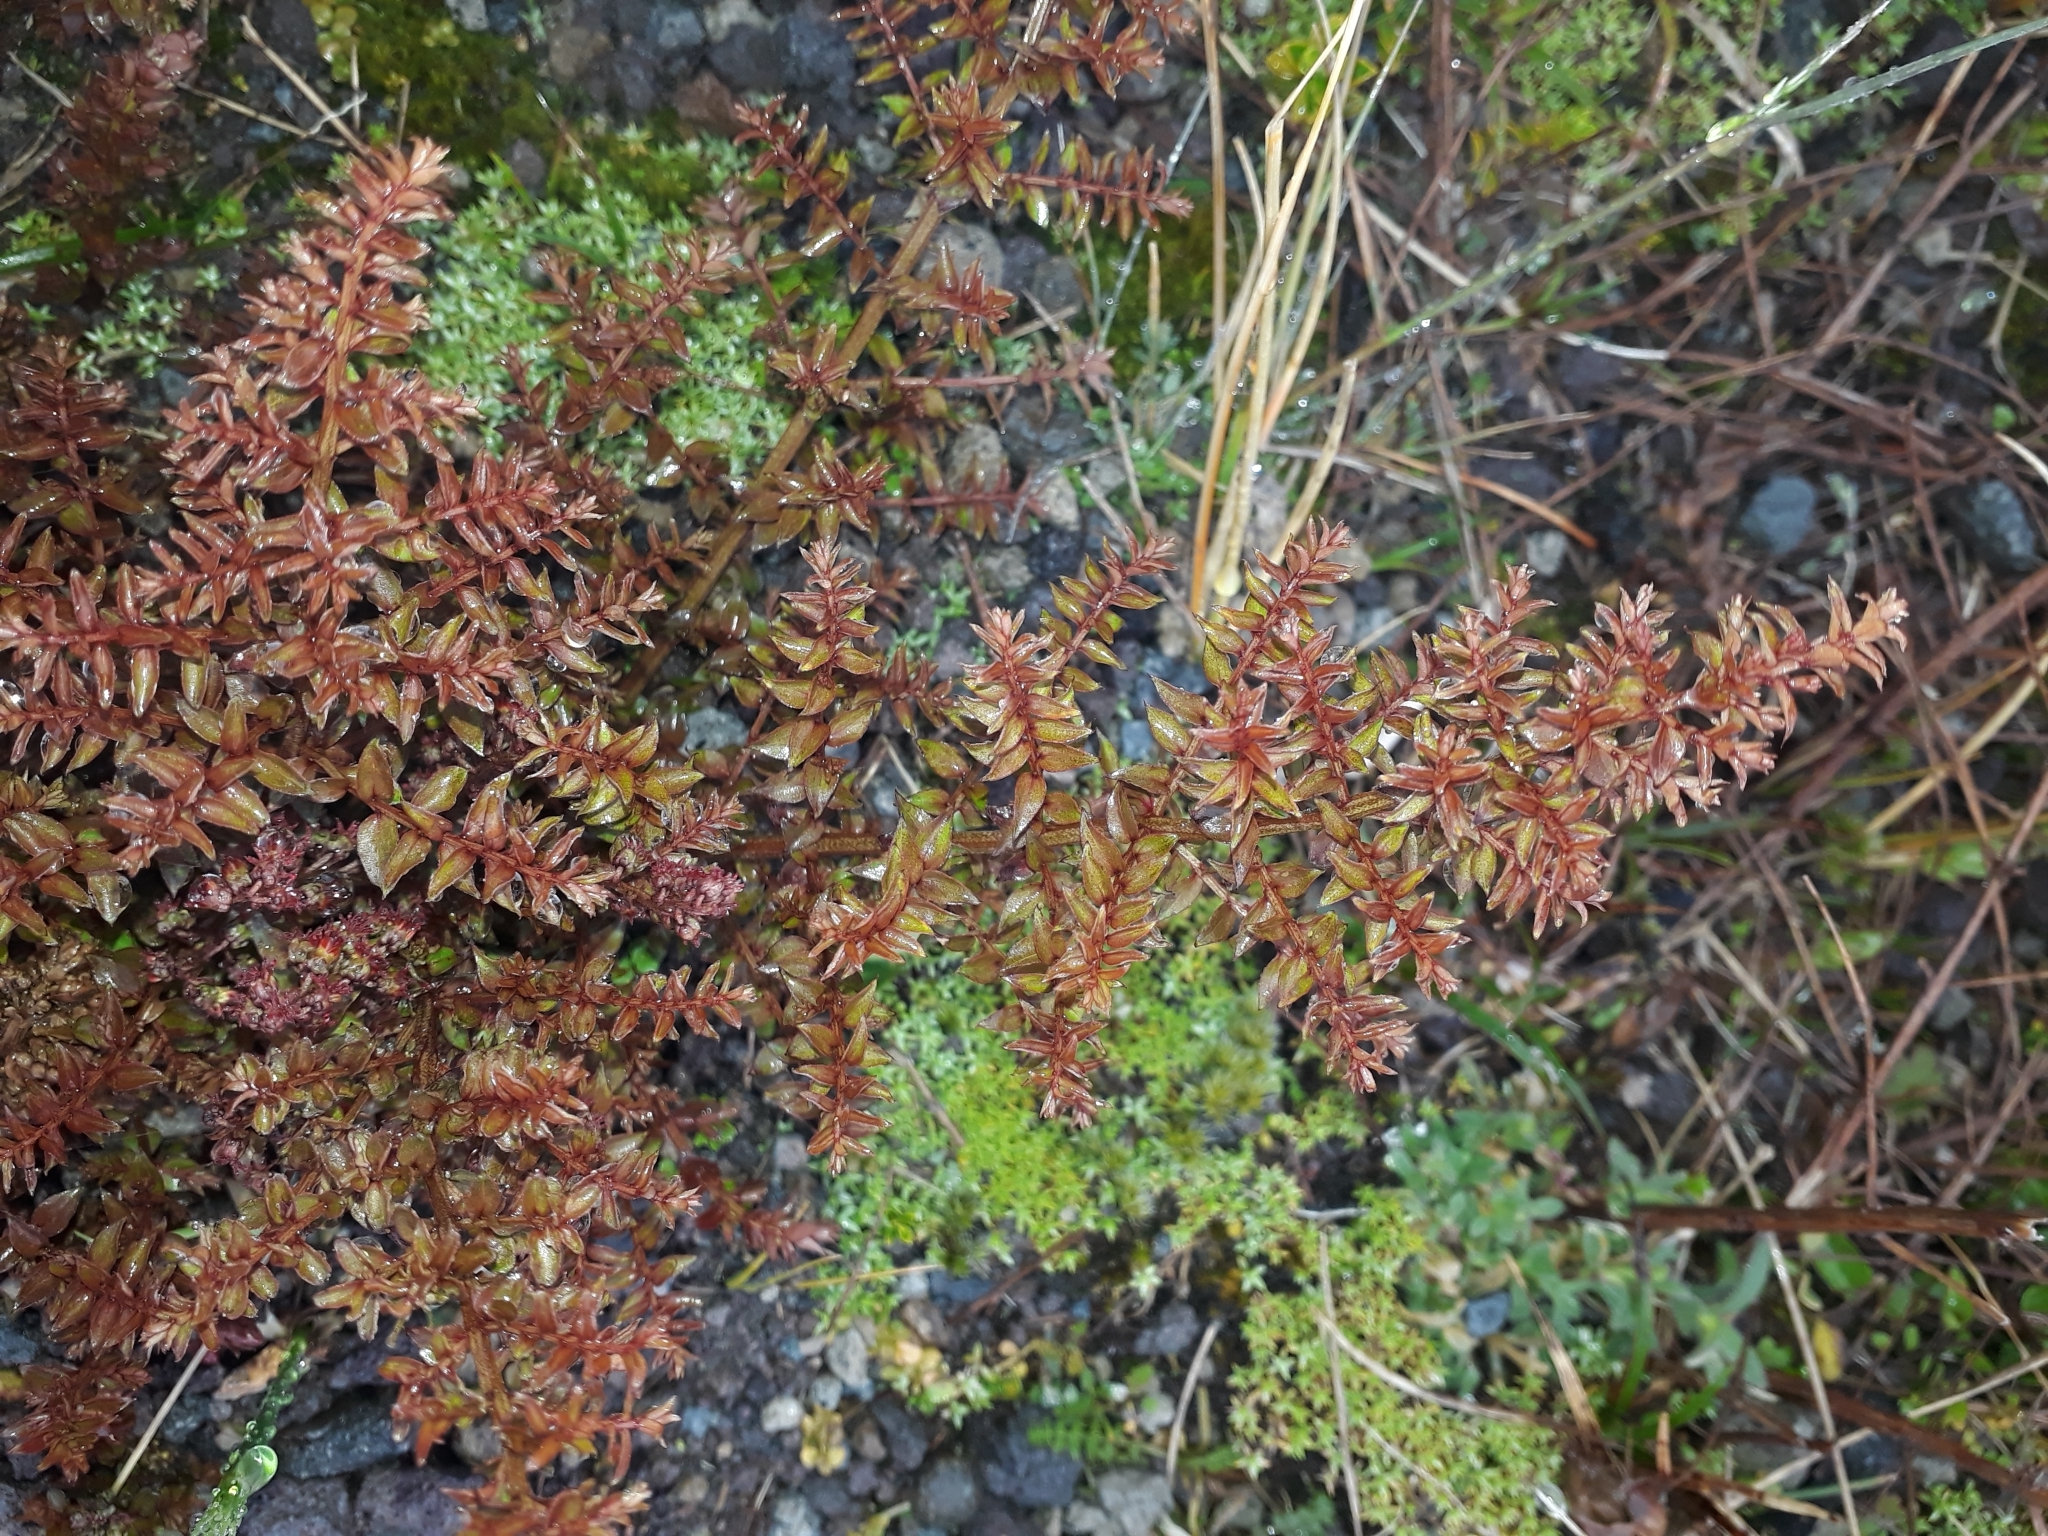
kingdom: Plantae
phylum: Tracheophyta
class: Magnoliopsida
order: Cucurbitales
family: Coriariaceae
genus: Coriaria
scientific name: Coriaria plumosa
